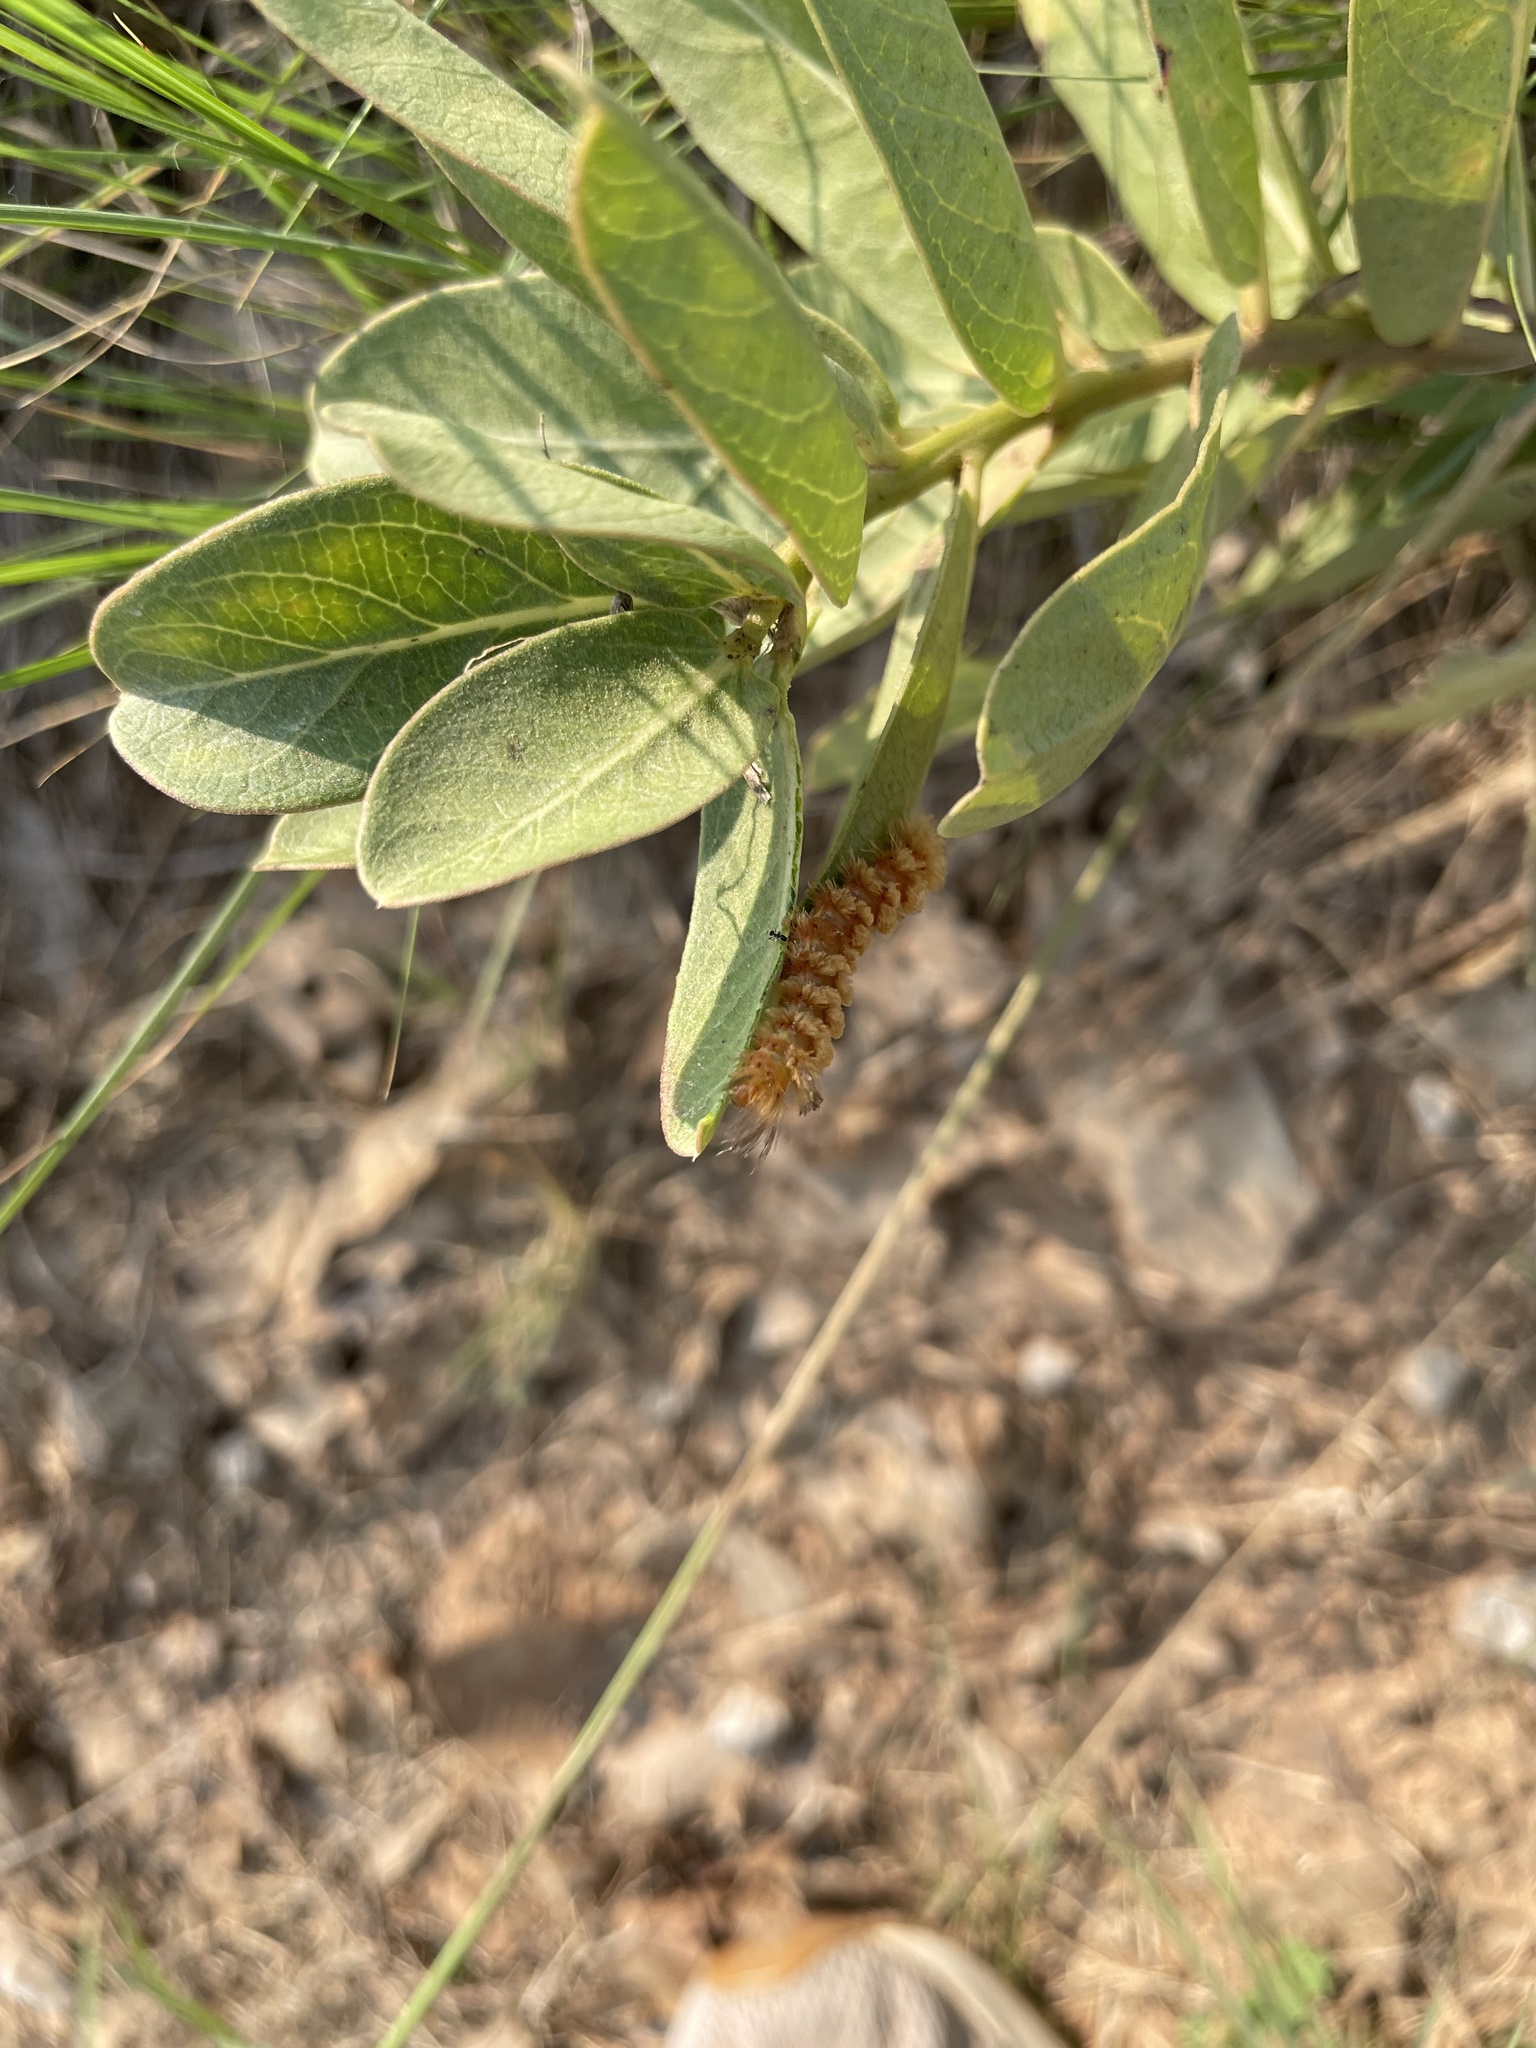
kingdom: Animalia
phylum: Arthropoda
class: Insecta
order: Lepidoptera
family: Erebidae
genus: Cycnia
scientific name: Cycnia collaris
